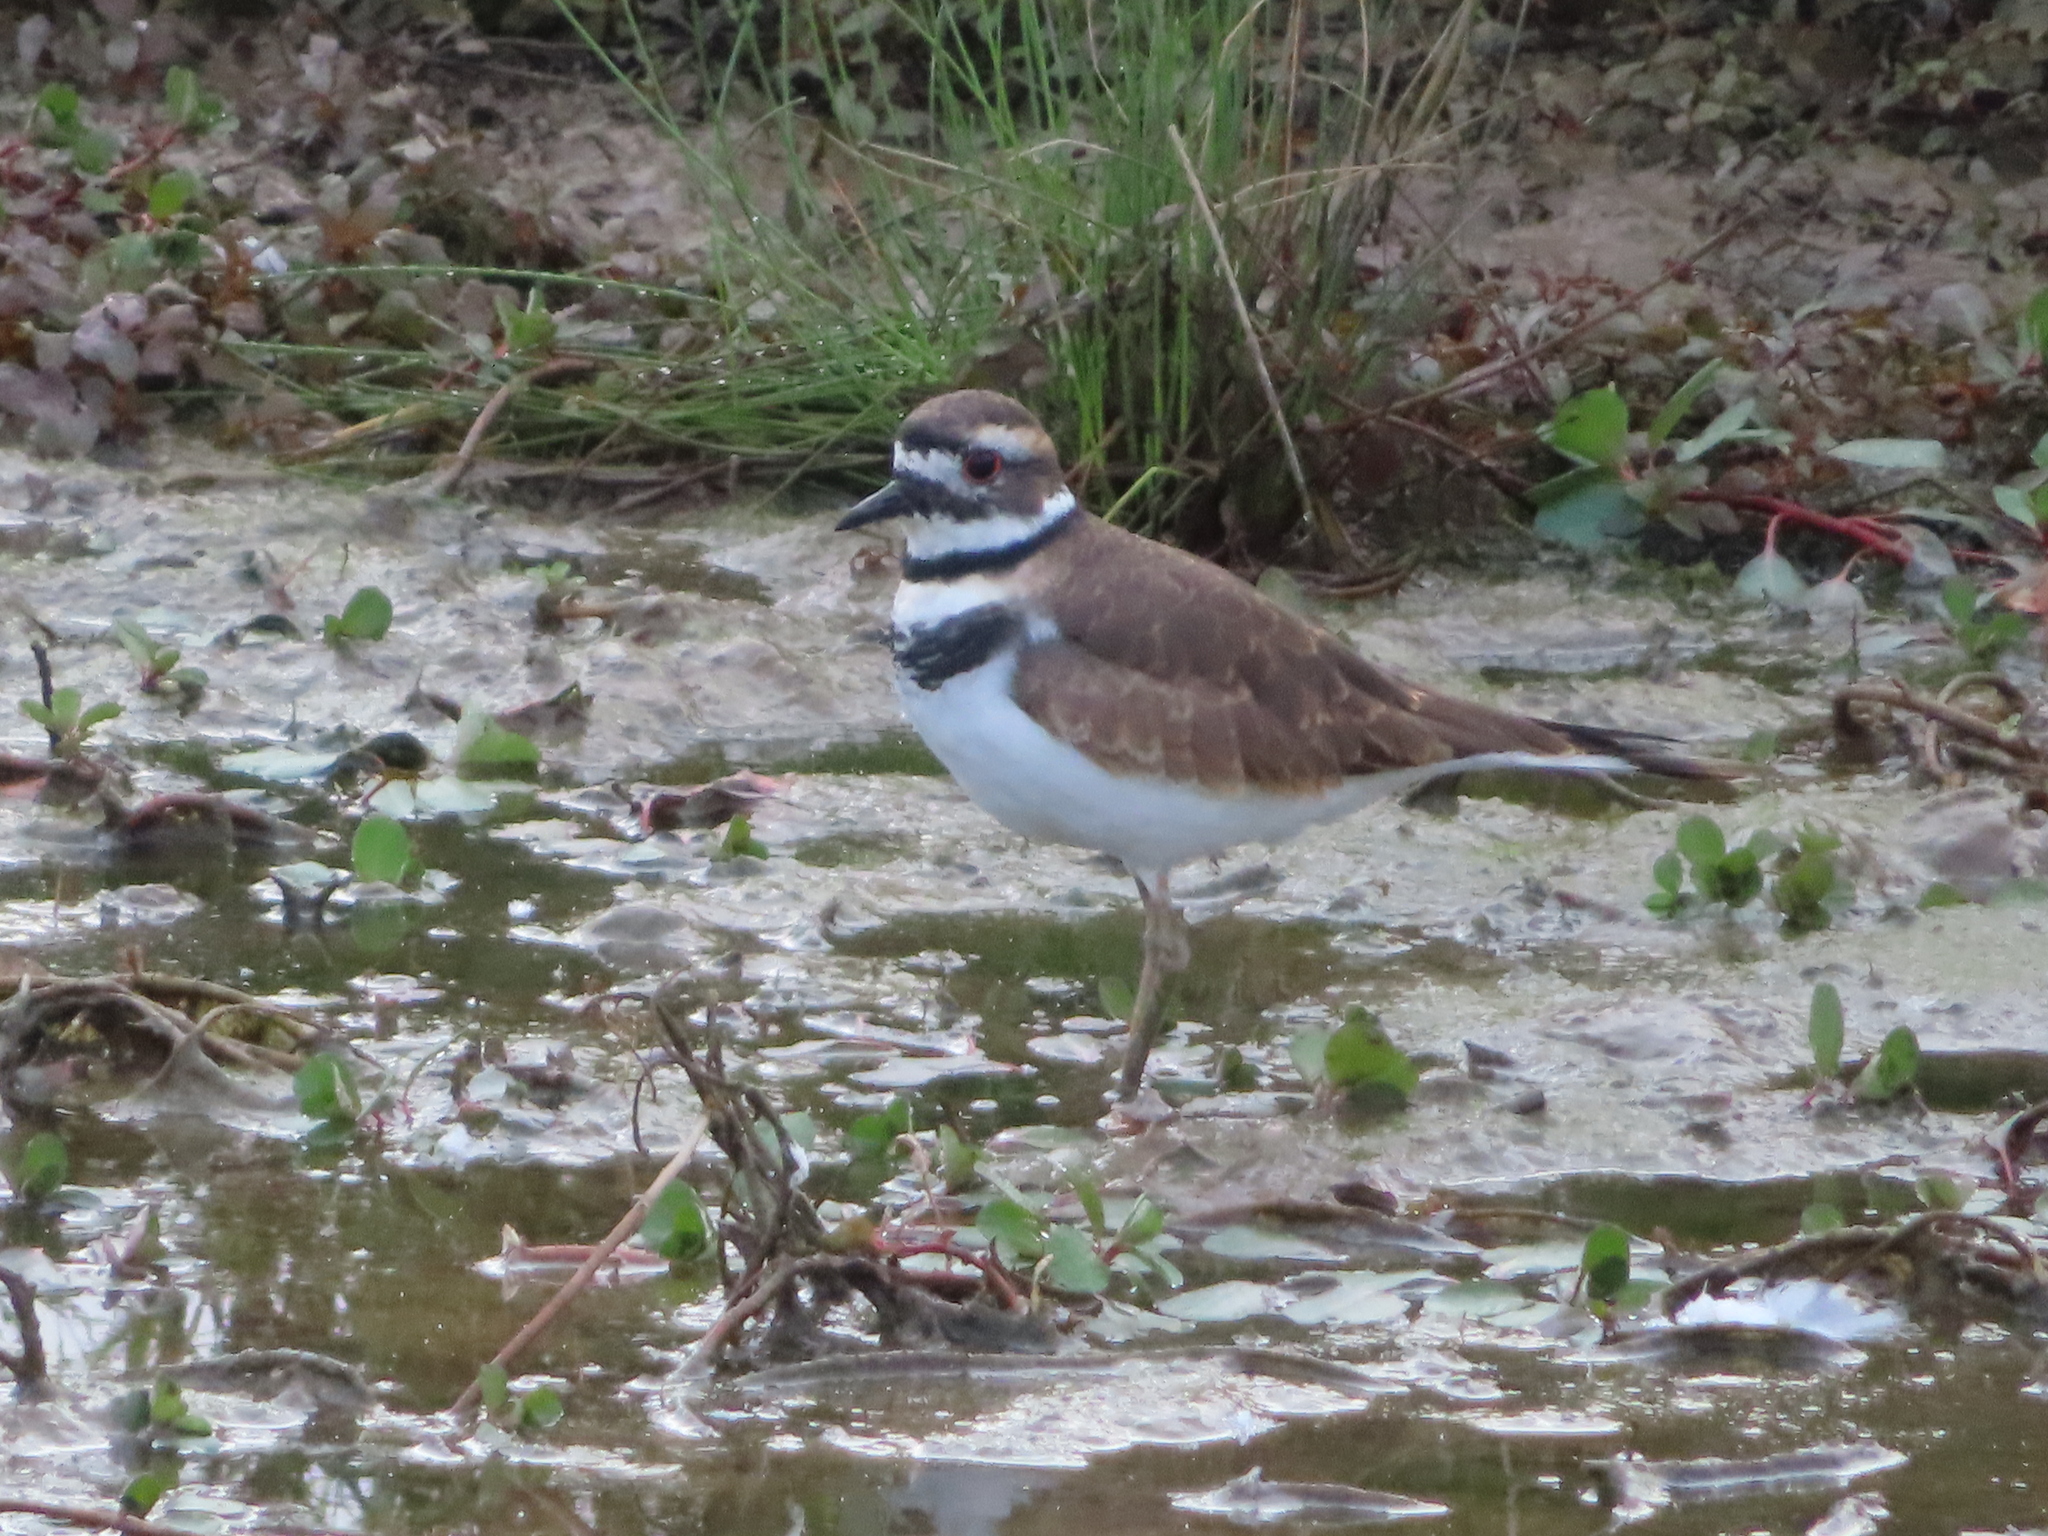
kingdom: Animalia
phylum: Chordata
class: Aves
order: Charadriiformes
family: Charadriidae
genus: Charadrius
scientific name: Charadrius vociferus
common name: Killdeer
